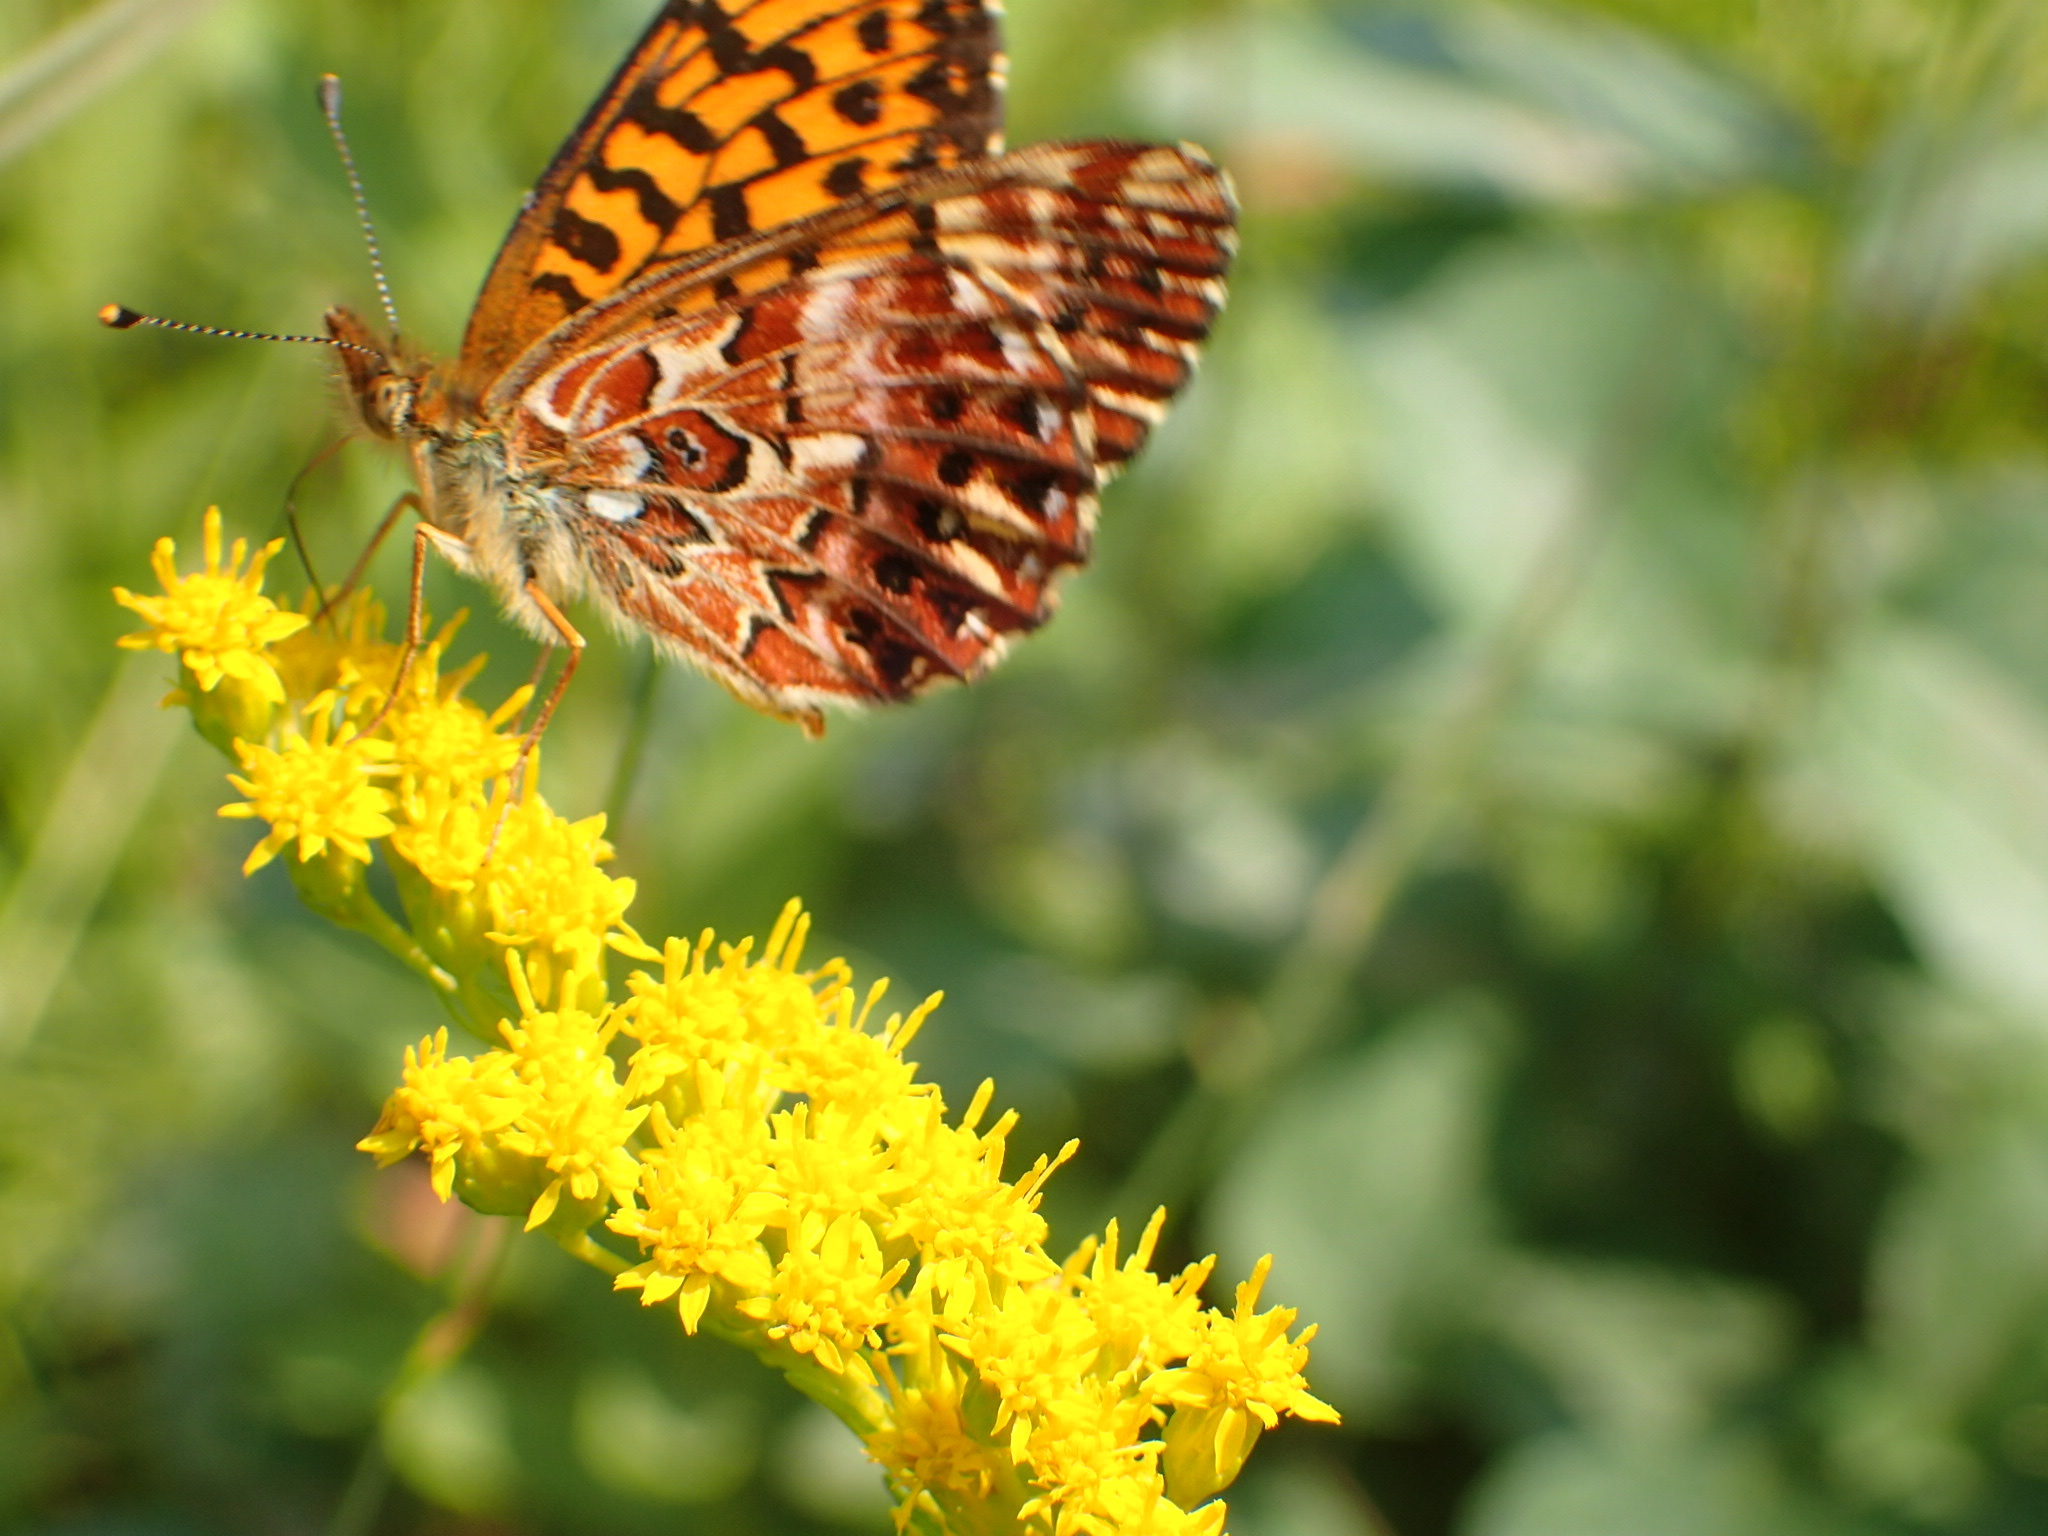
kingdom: Animalia
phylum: Arthropoda
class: Insecta
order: Lepidoptera
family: Nymphalidae
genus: Boloria
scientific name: Boloria chariclea
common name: Arctic fritillary
